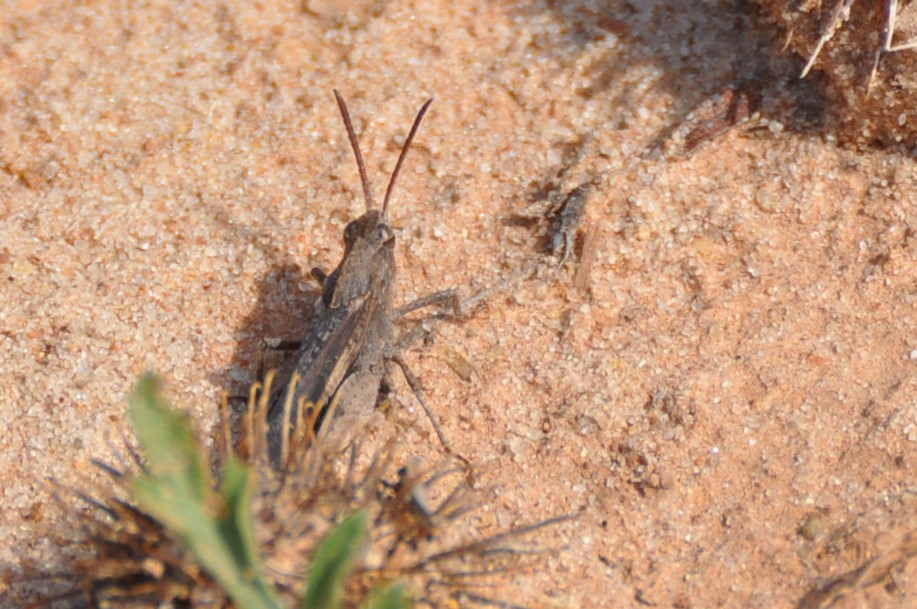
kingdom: Animalia
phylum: Arthropoda
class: Insecta
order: Orthoptera
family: Acrididae
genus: Chortophaga
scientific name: Chortophaga viridifasciata
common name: Green-striped grasshopper
